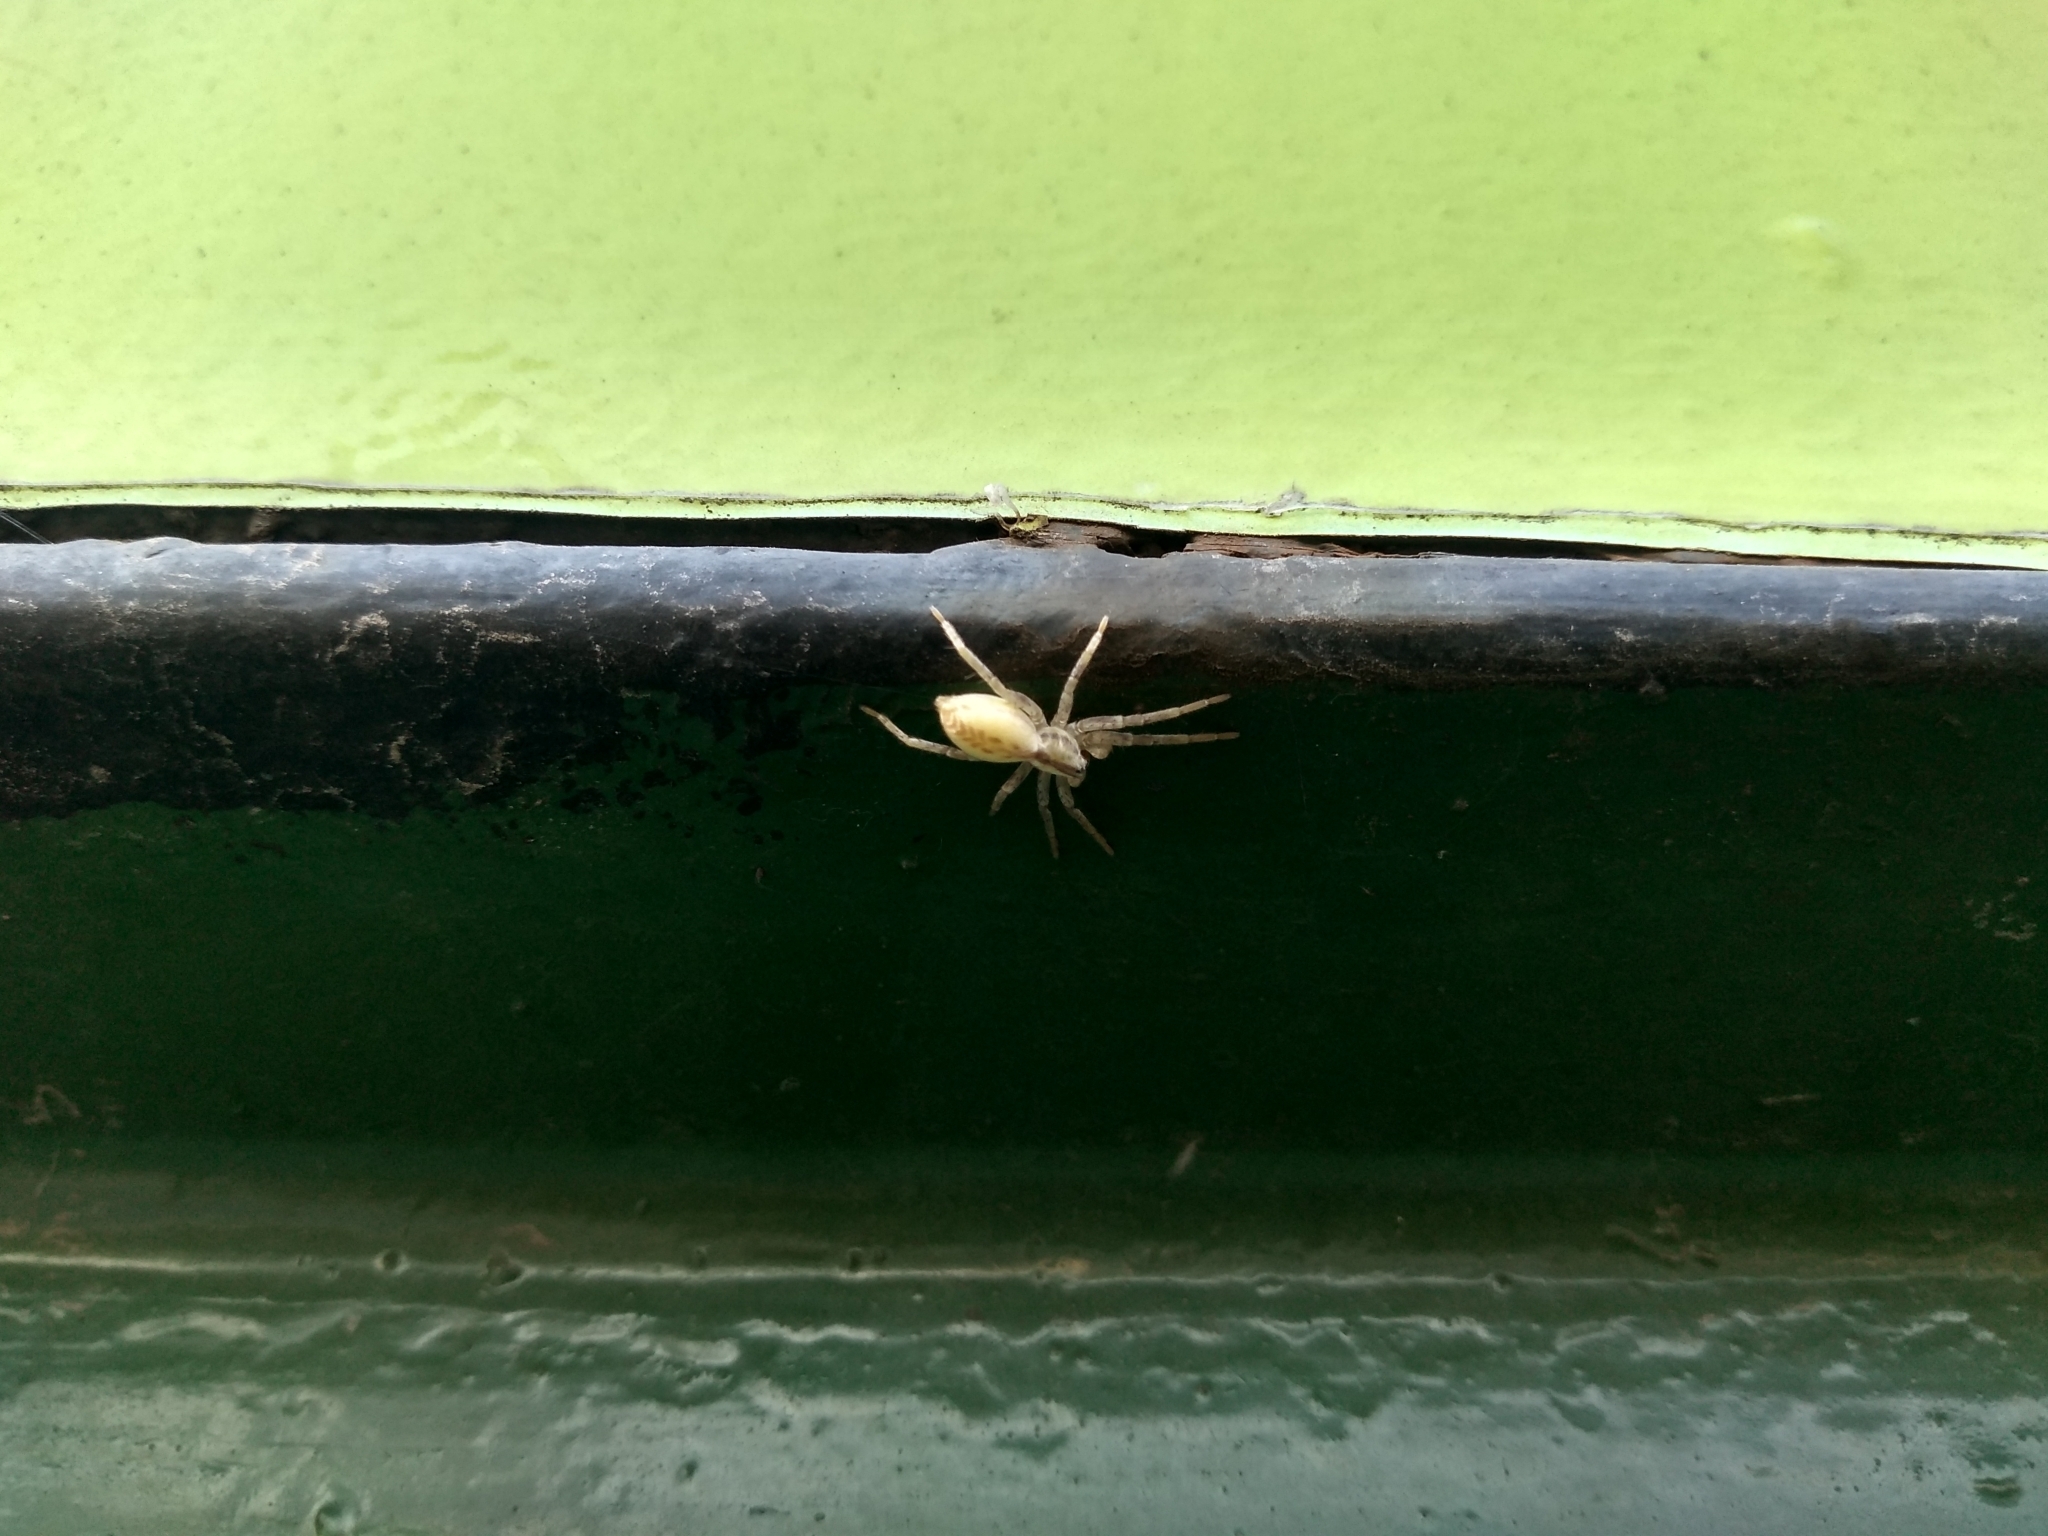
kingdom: Animalia
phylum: Arthropoda
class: Arachnida
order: Araneae
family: Anyphaenidae
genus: Arachosia
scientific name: Arachosia praesignis
